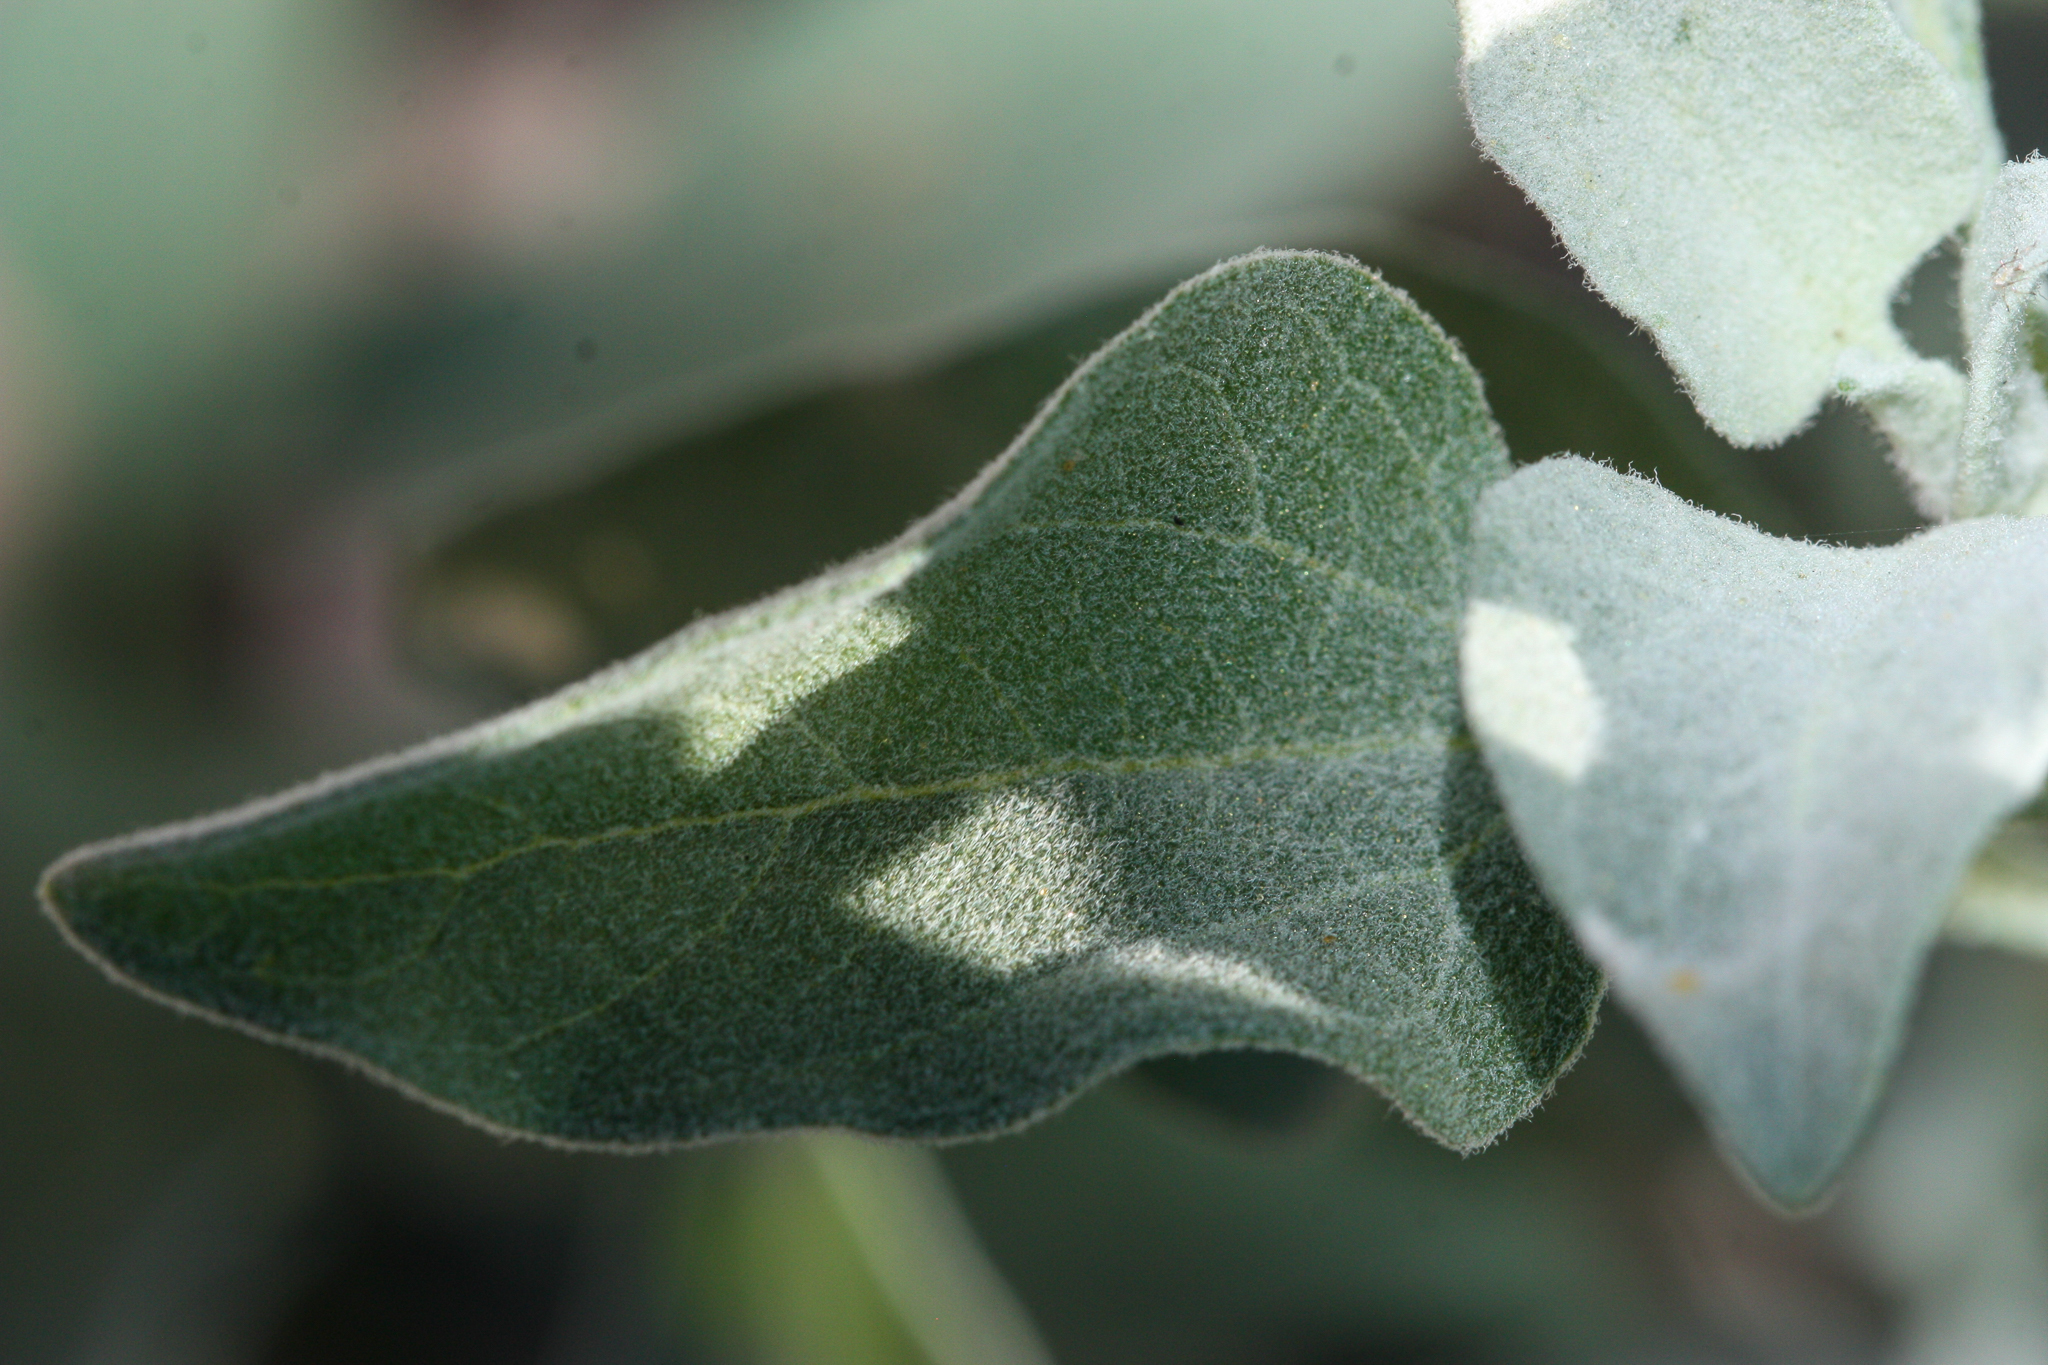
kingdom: Plantae
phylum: Tracheophyta
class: Magnoliopsida
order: Asterales
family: Asteraceae
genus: Encelia
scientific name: Encelia farinosa
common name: Brittlebush
